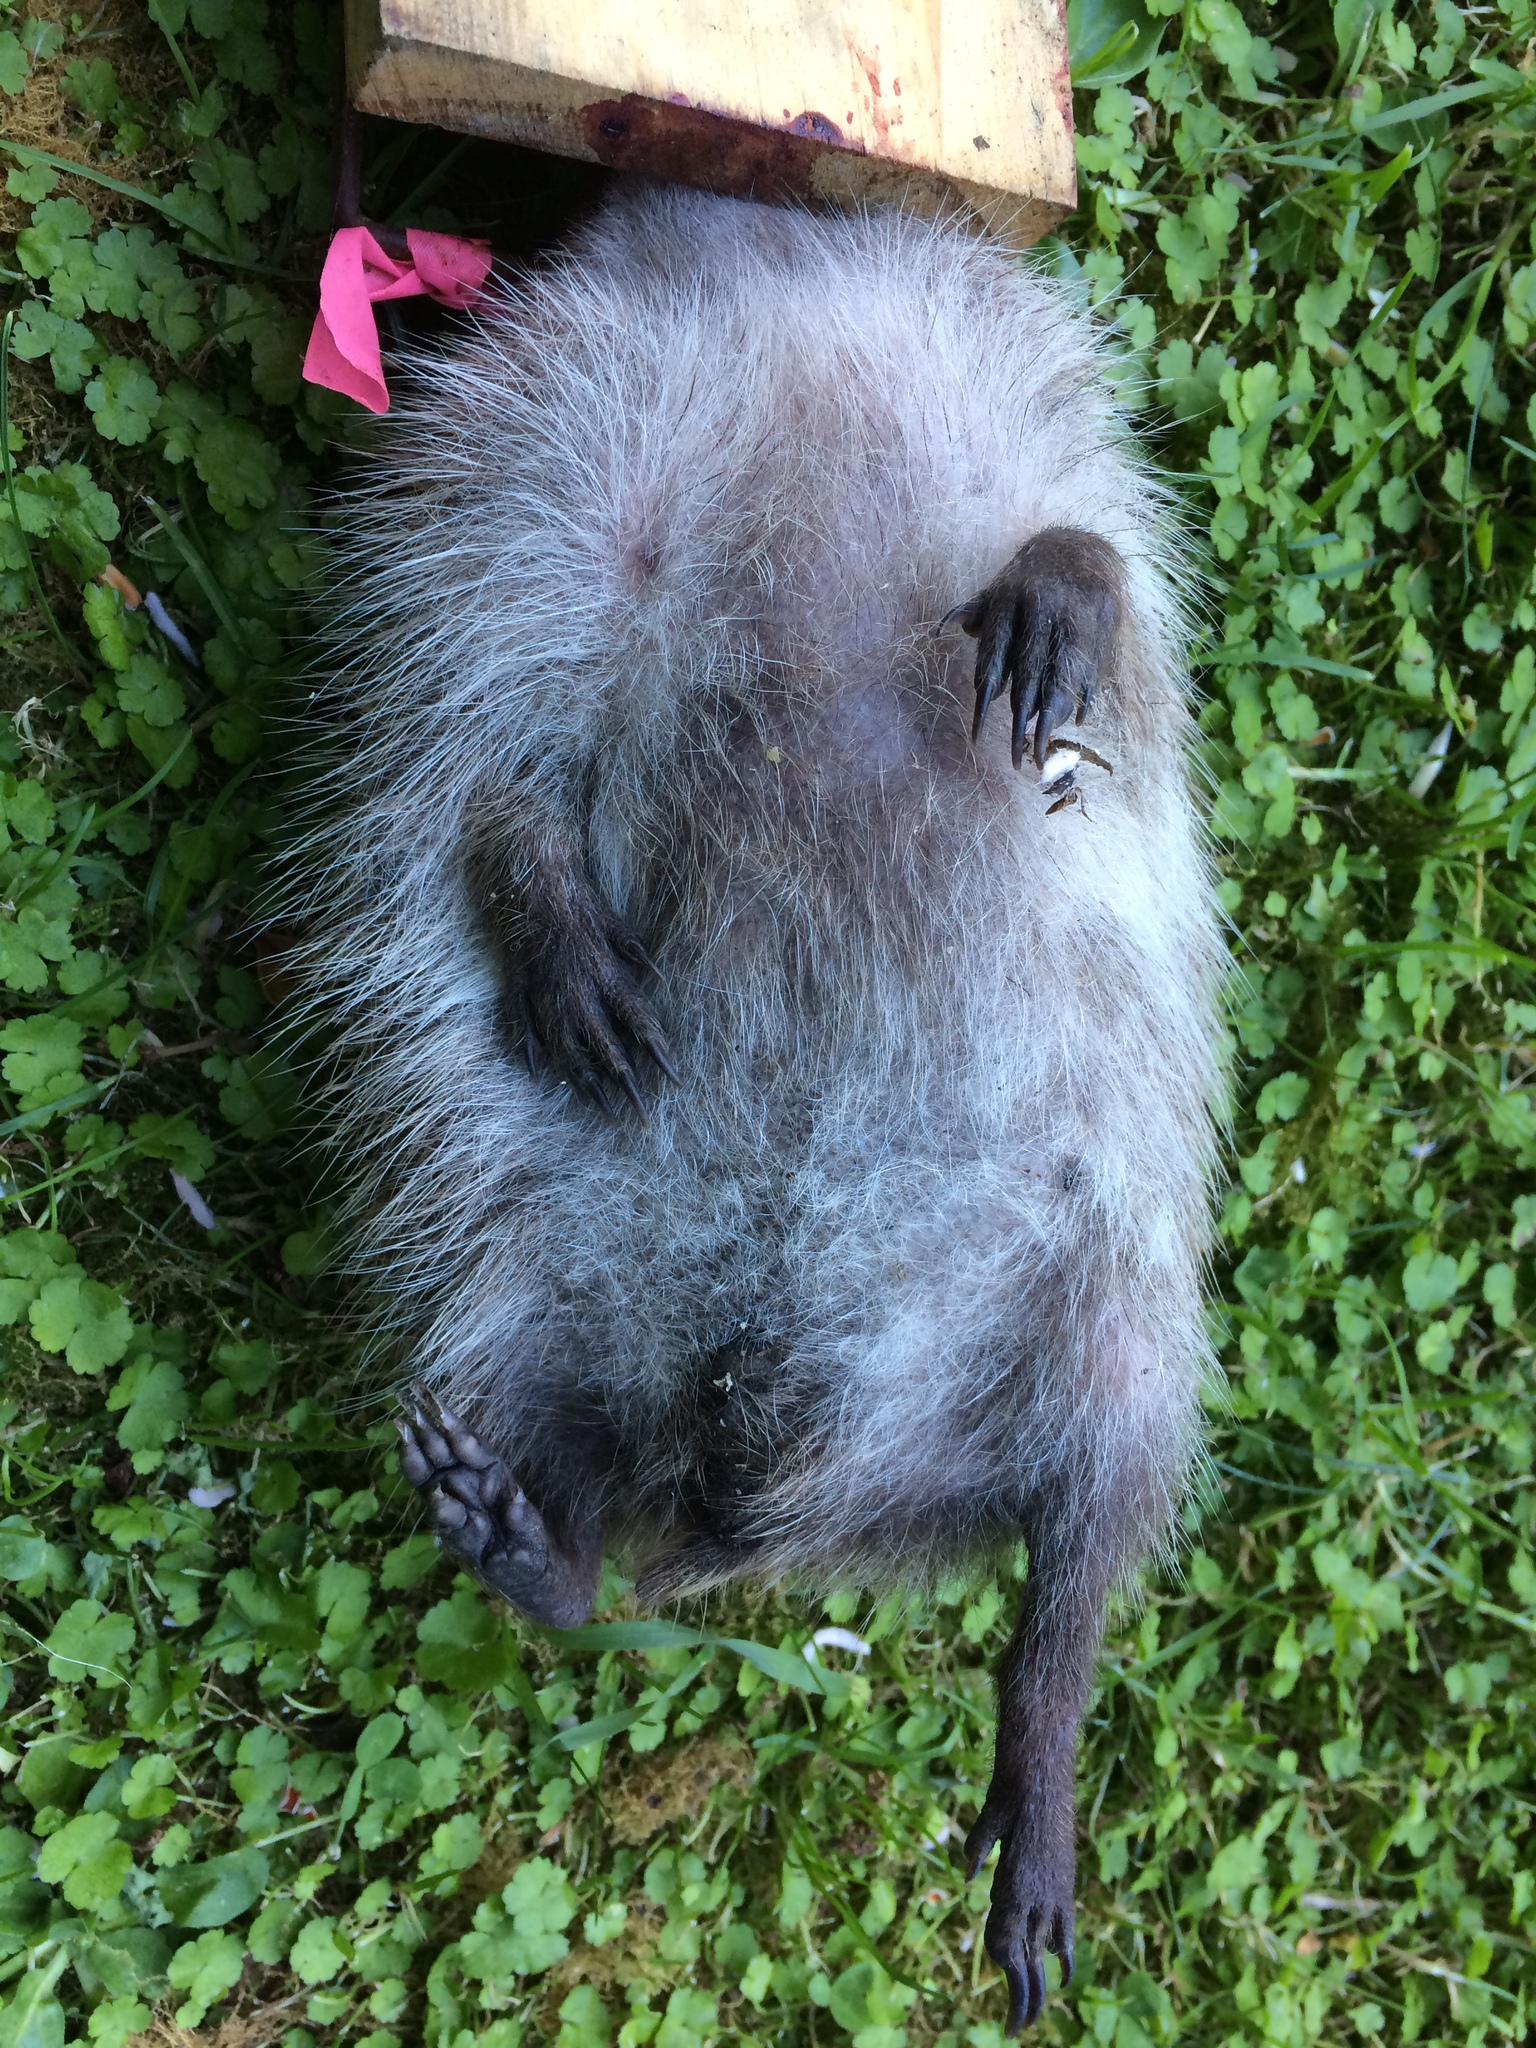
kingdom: Animalia
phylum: Chordata
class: Mammalia
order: Erinaceomorpha
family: Erinaceidae
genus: Erinaceus
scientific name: Erinaceus europaeus
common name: West european hedgehog
